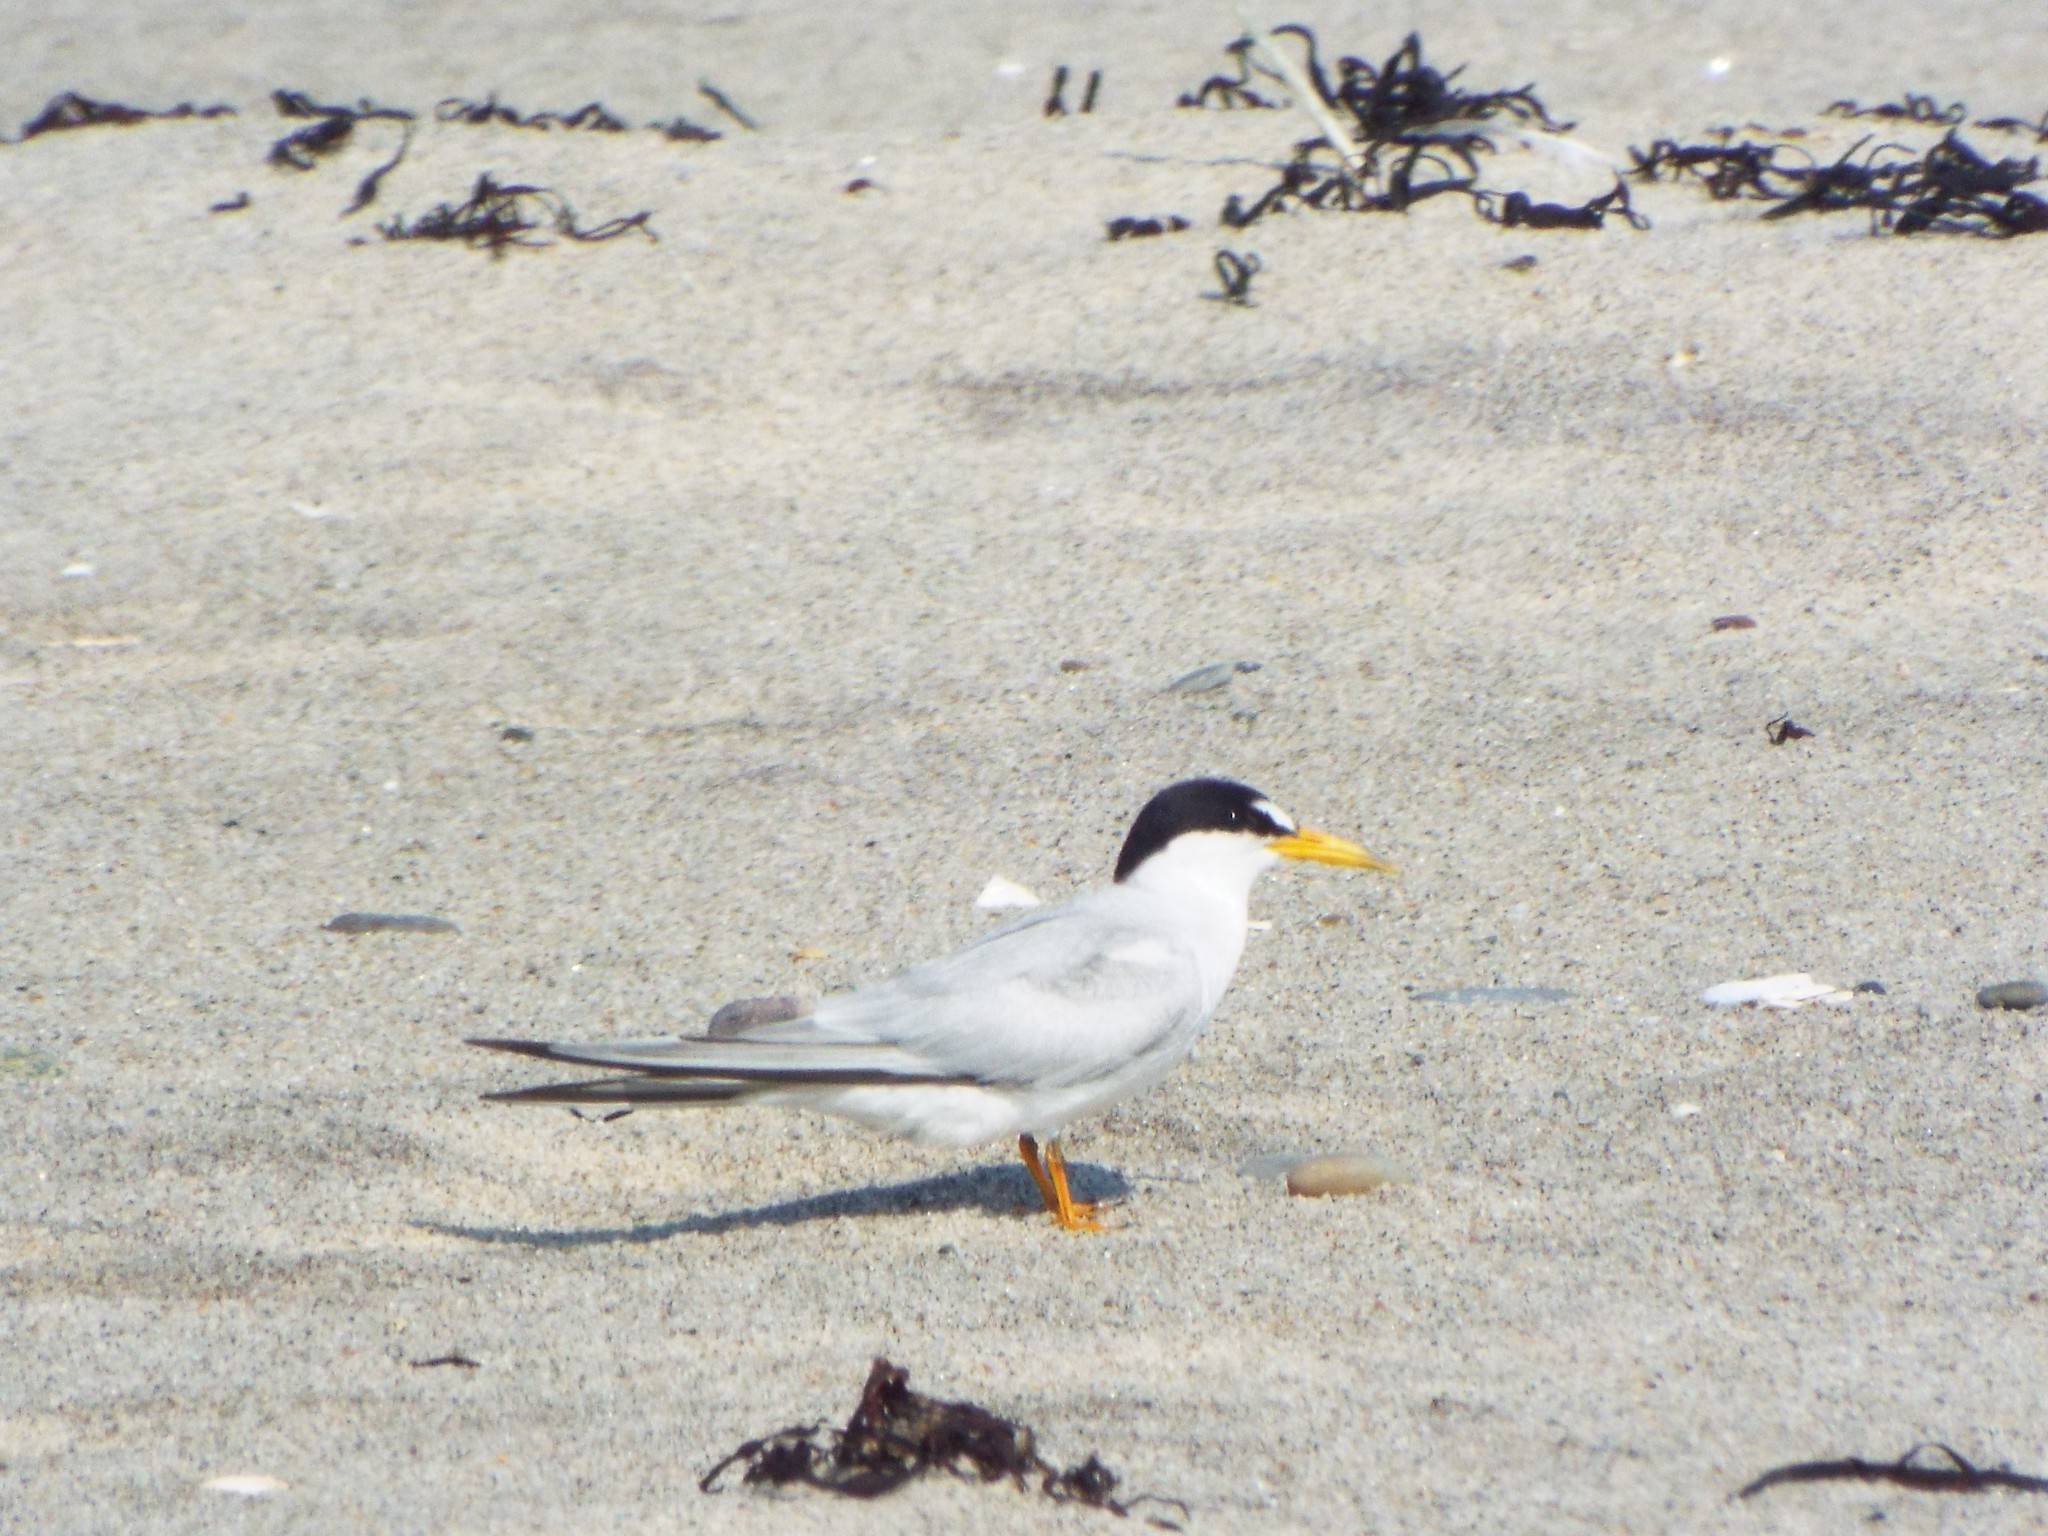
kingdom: Animalia
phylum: Chordata
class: Aves
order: Charadriiformes
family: Laridae
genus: Sternula
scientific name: Sternula antillarum
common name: Least tern
